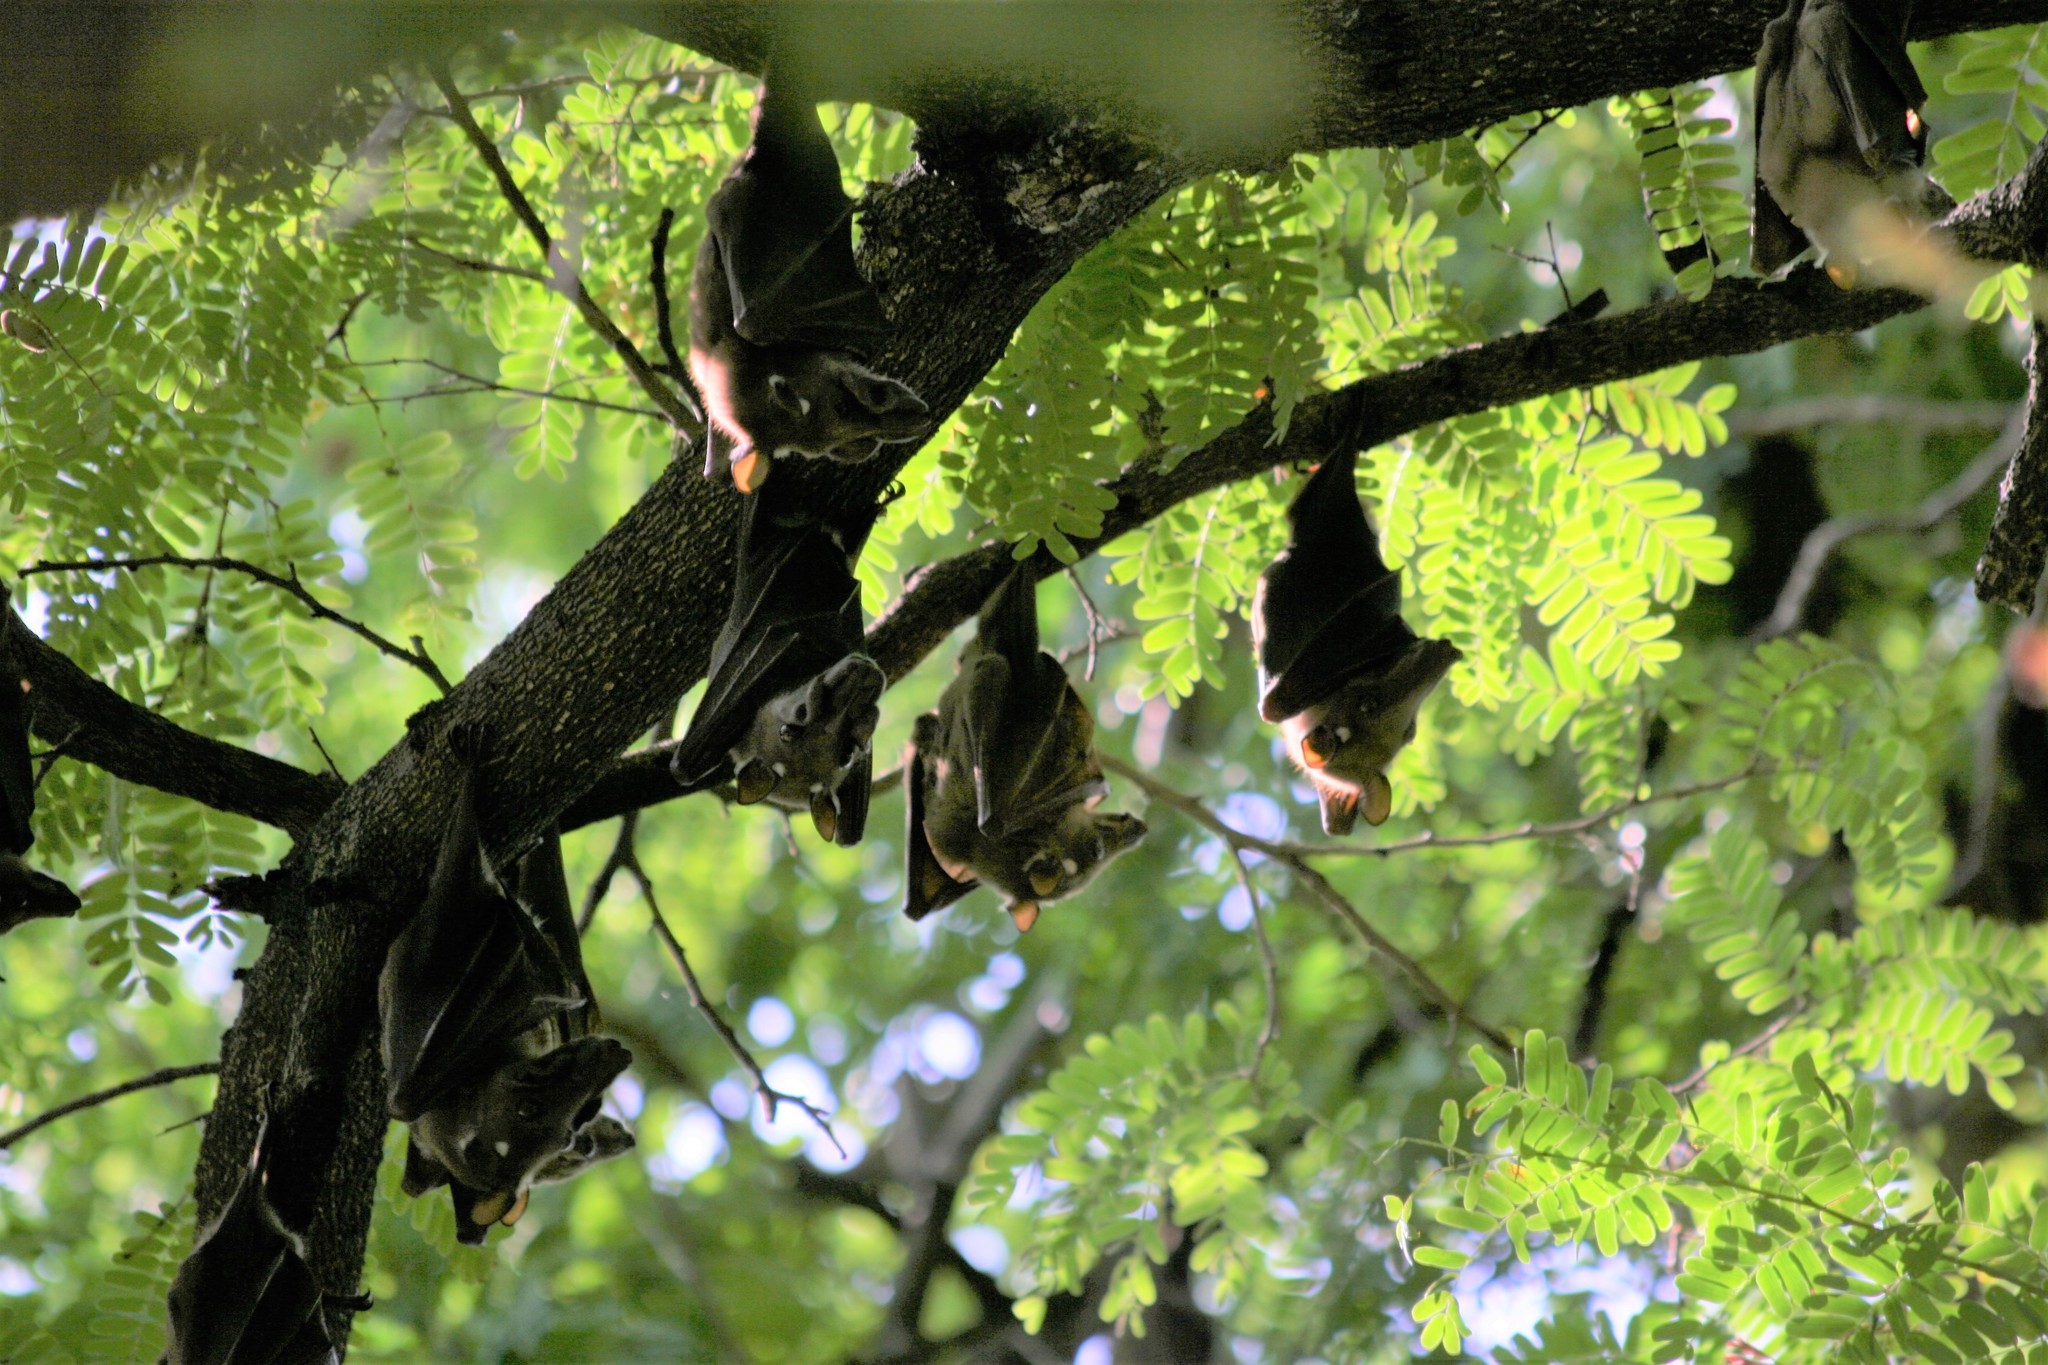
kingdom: Animalia
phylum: Chordata
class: Mammalia
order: Chiroptera
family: Pteropodidae
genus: Epomophorus
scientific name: Epomophorus gambianus
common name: Gambian epauletted fruit bat
